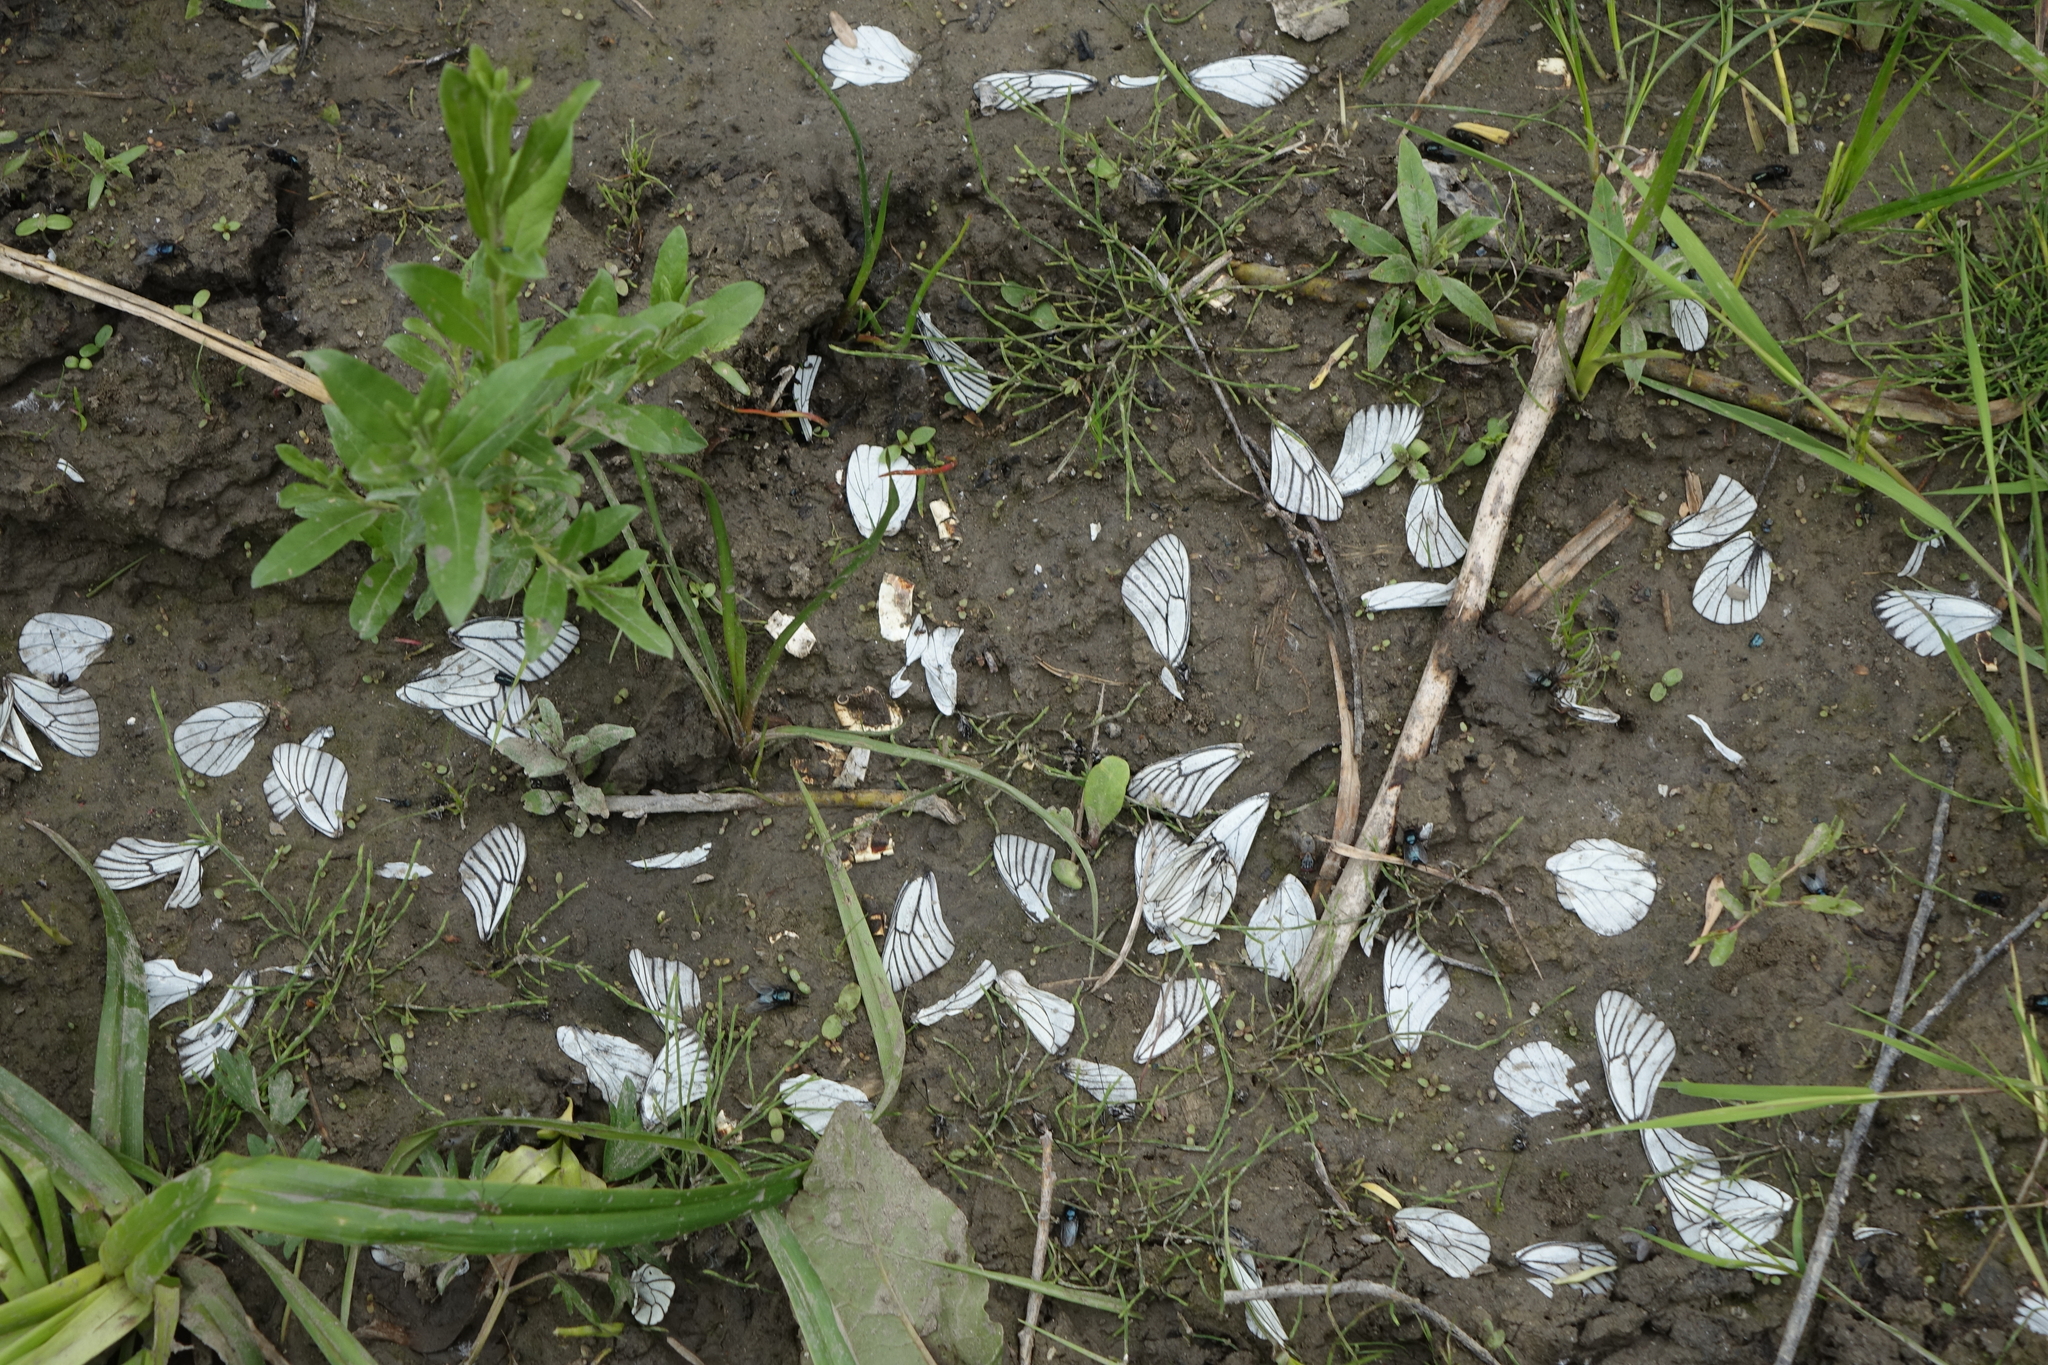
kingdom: Animalia
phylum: Arthropoda
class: Insecta
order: Lepidoptera
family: Pieridae
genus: Aporia
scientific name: Aporia crataegi
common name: Black-veined white
